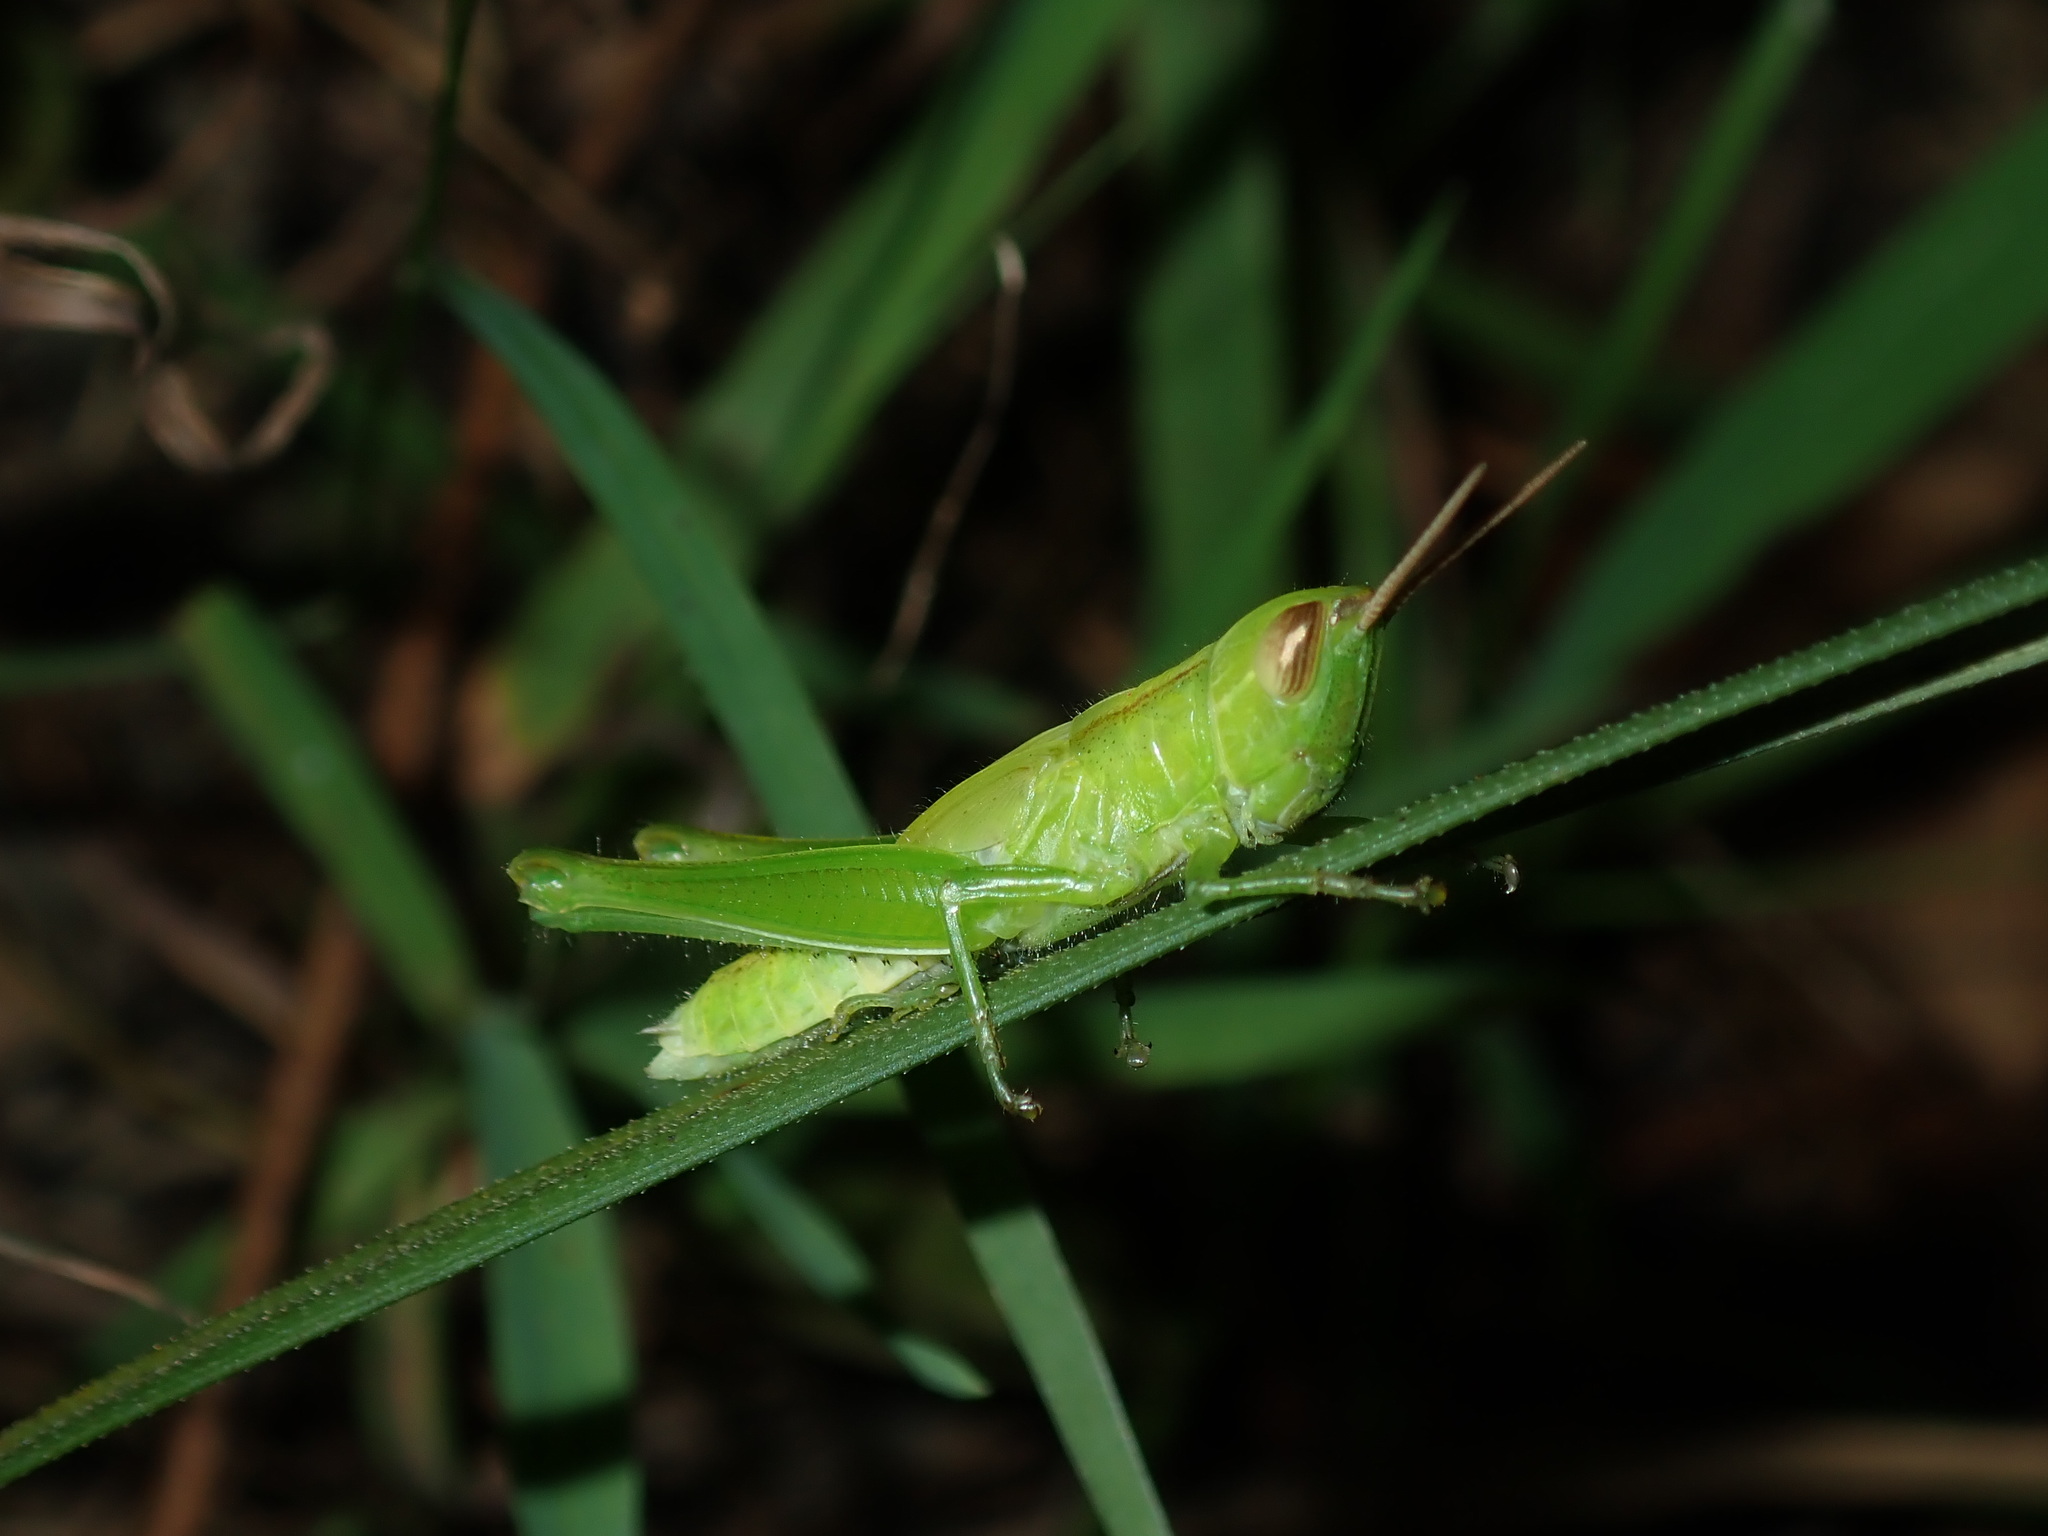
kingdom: Animalia
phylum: Arthropoda
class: Insecta
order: Orthoptera
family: Acrididae
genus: Bermius
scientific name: Bermius brachycerus
